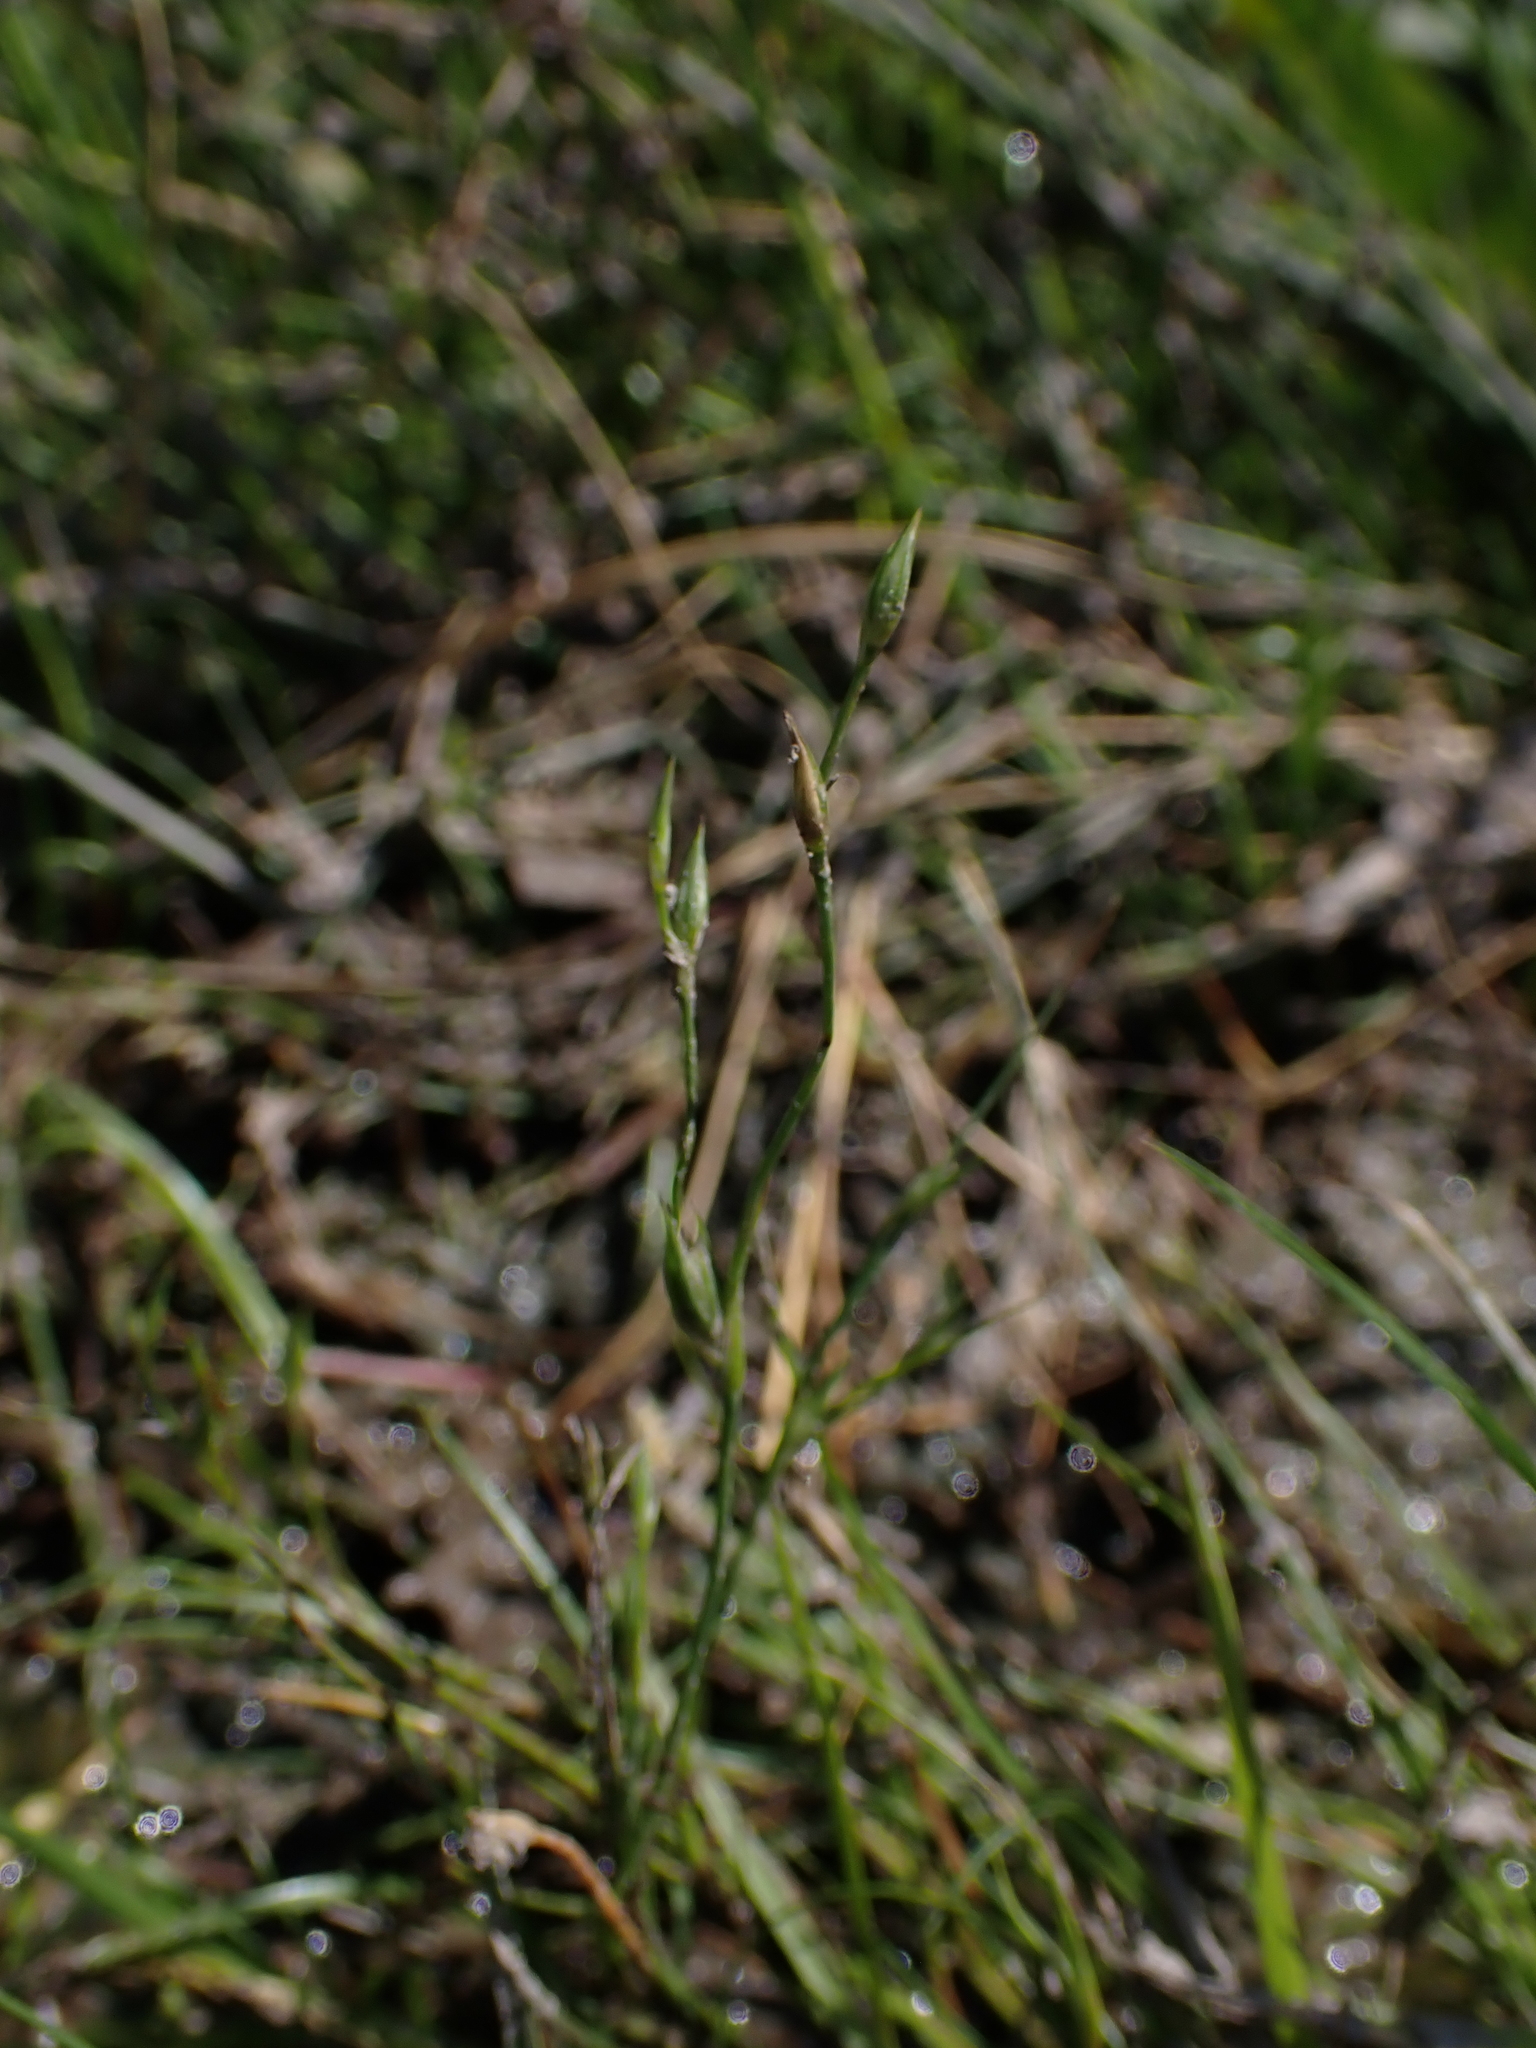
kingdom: Plantae
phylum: Tracheophyta
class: Liliopsida
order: Poales
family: Juncaceae
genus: Juncus
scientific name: Juncus bufonius
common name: Toad rush
